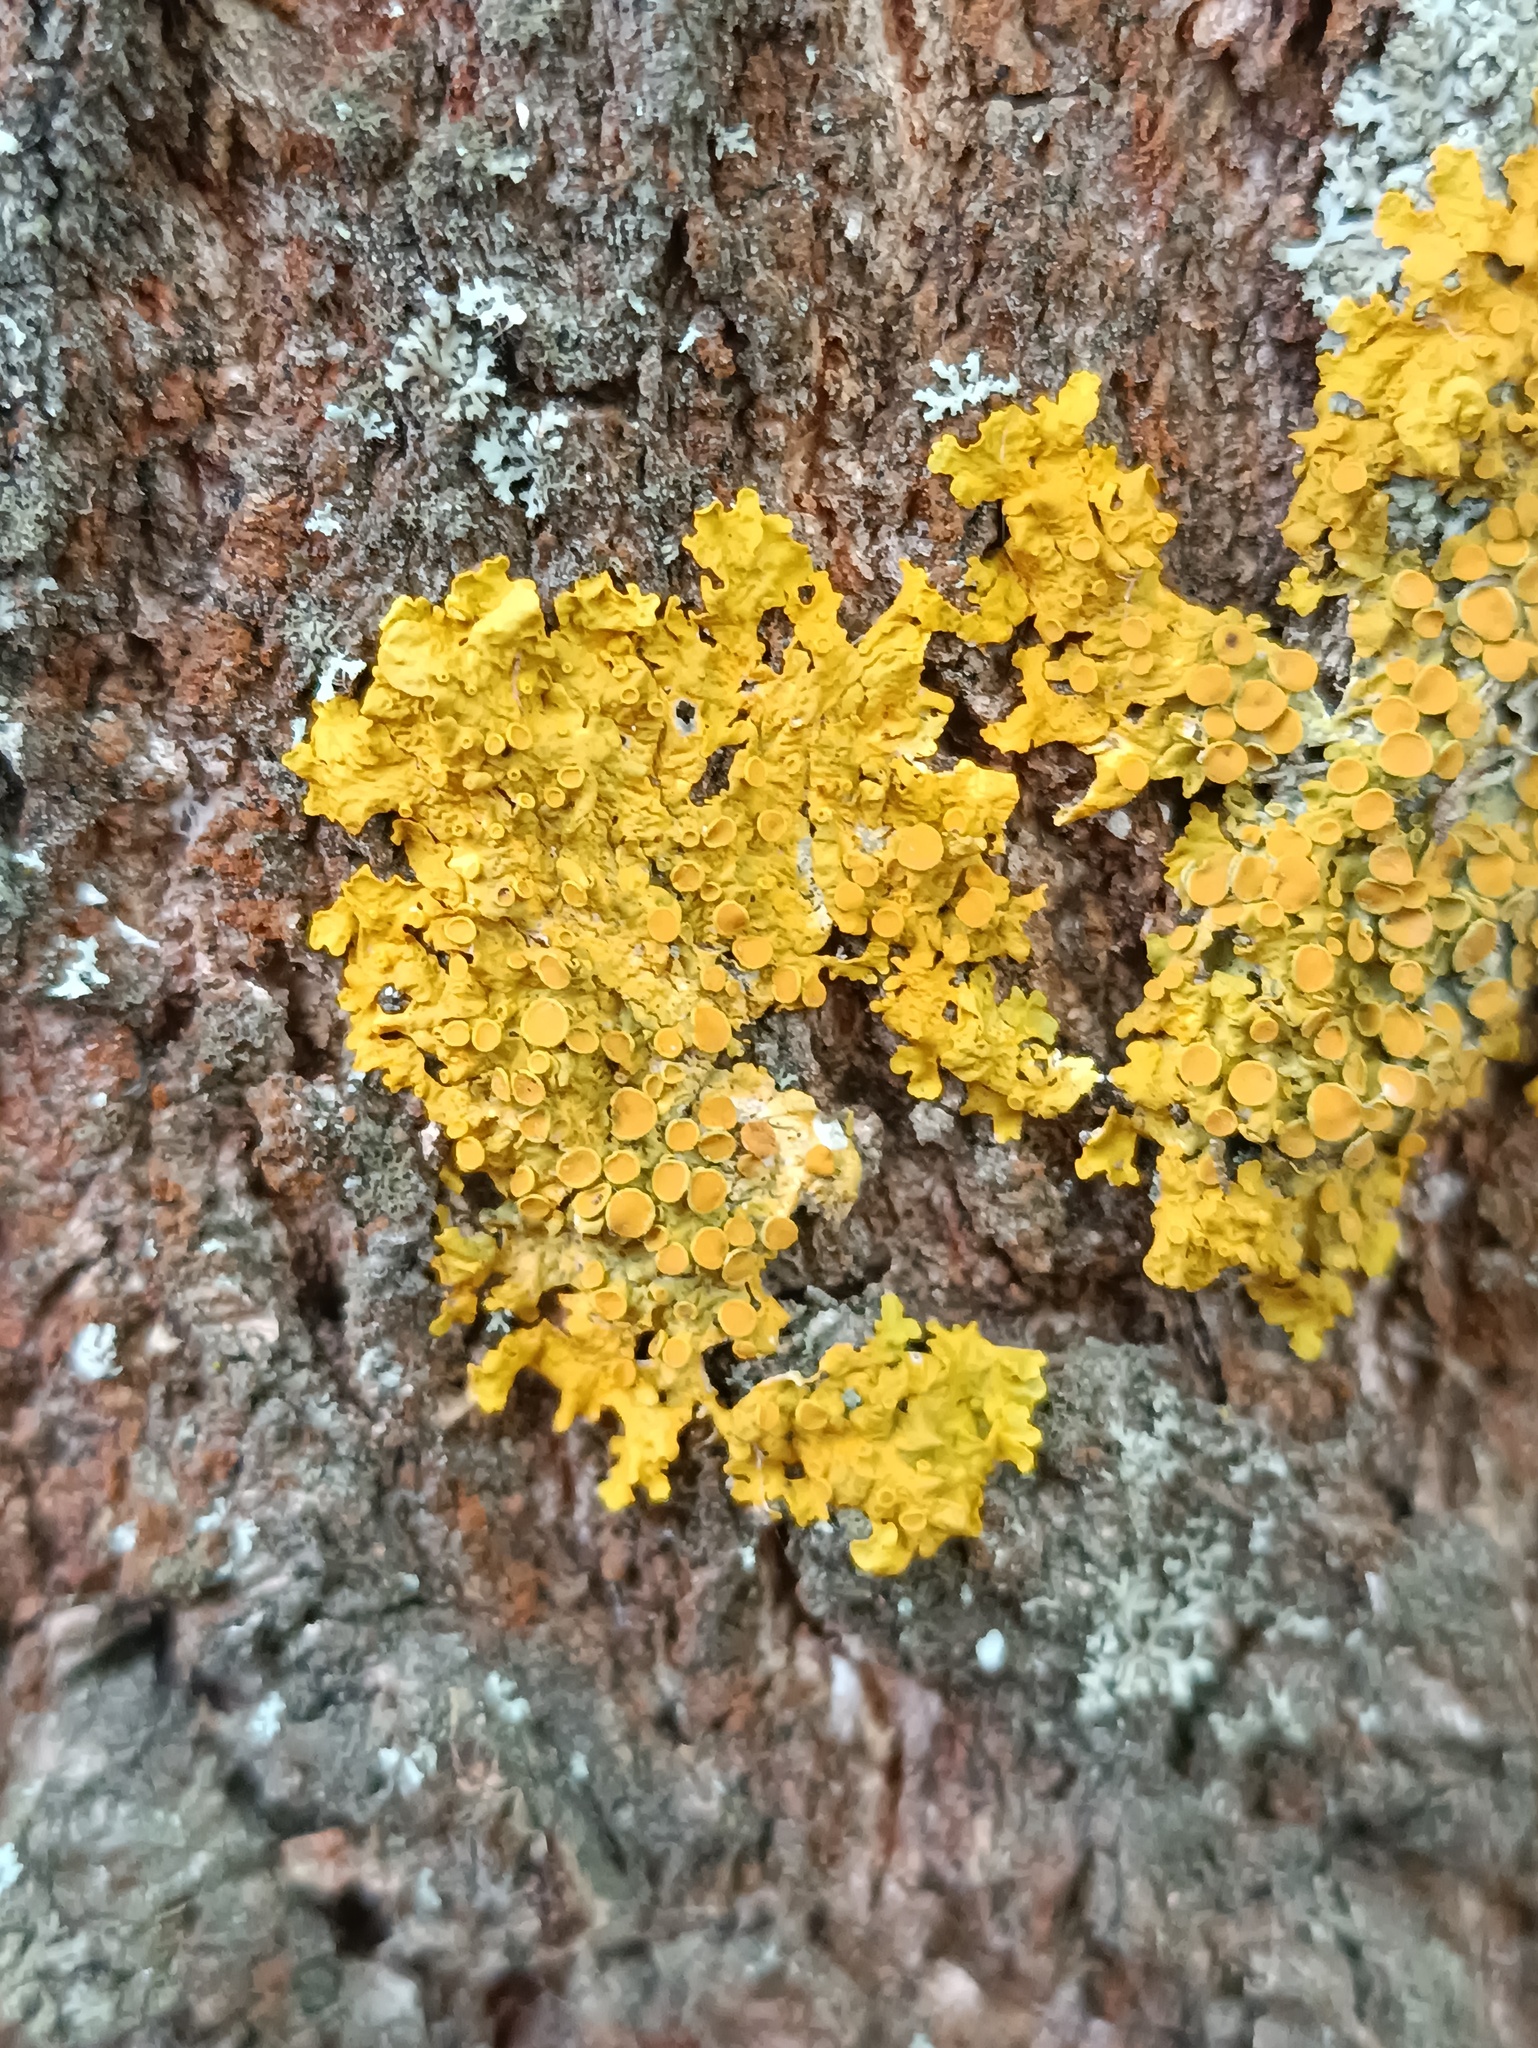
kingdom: Fungi
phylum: Ascomycota
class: Lecanoromycetes
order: Teloschistales
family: Teloschistaceae
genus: Xanthoria
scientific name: Xanthoria parietina
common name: Common orange lichen
